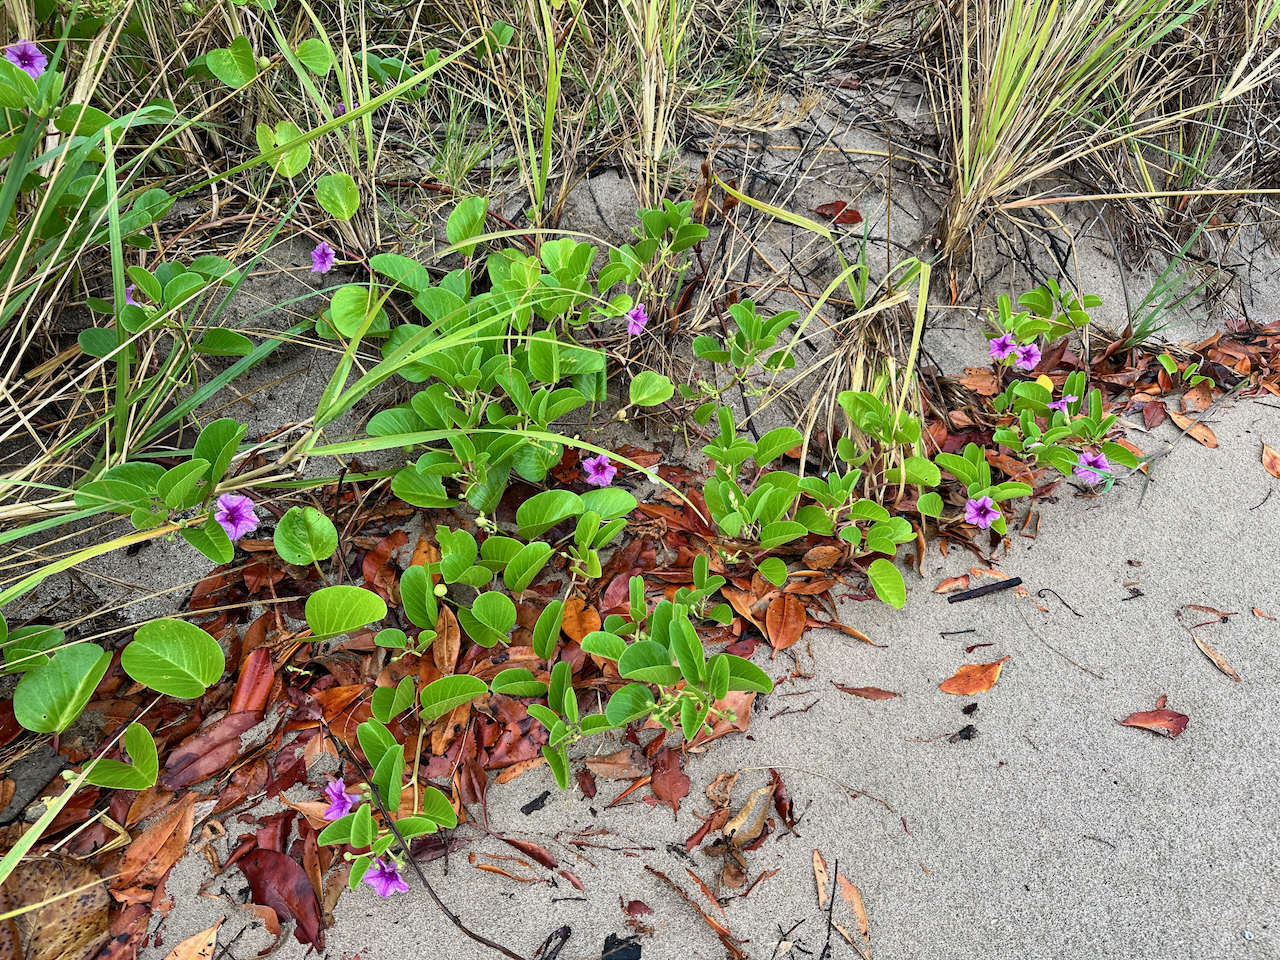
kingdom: Plantae
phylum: Tracheophyta
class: Magnoliopsida
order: Solanales
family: Convolvulaceae
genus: Ipomoea
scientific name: Ipomoea pes-caprae
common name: Beach morning glory
